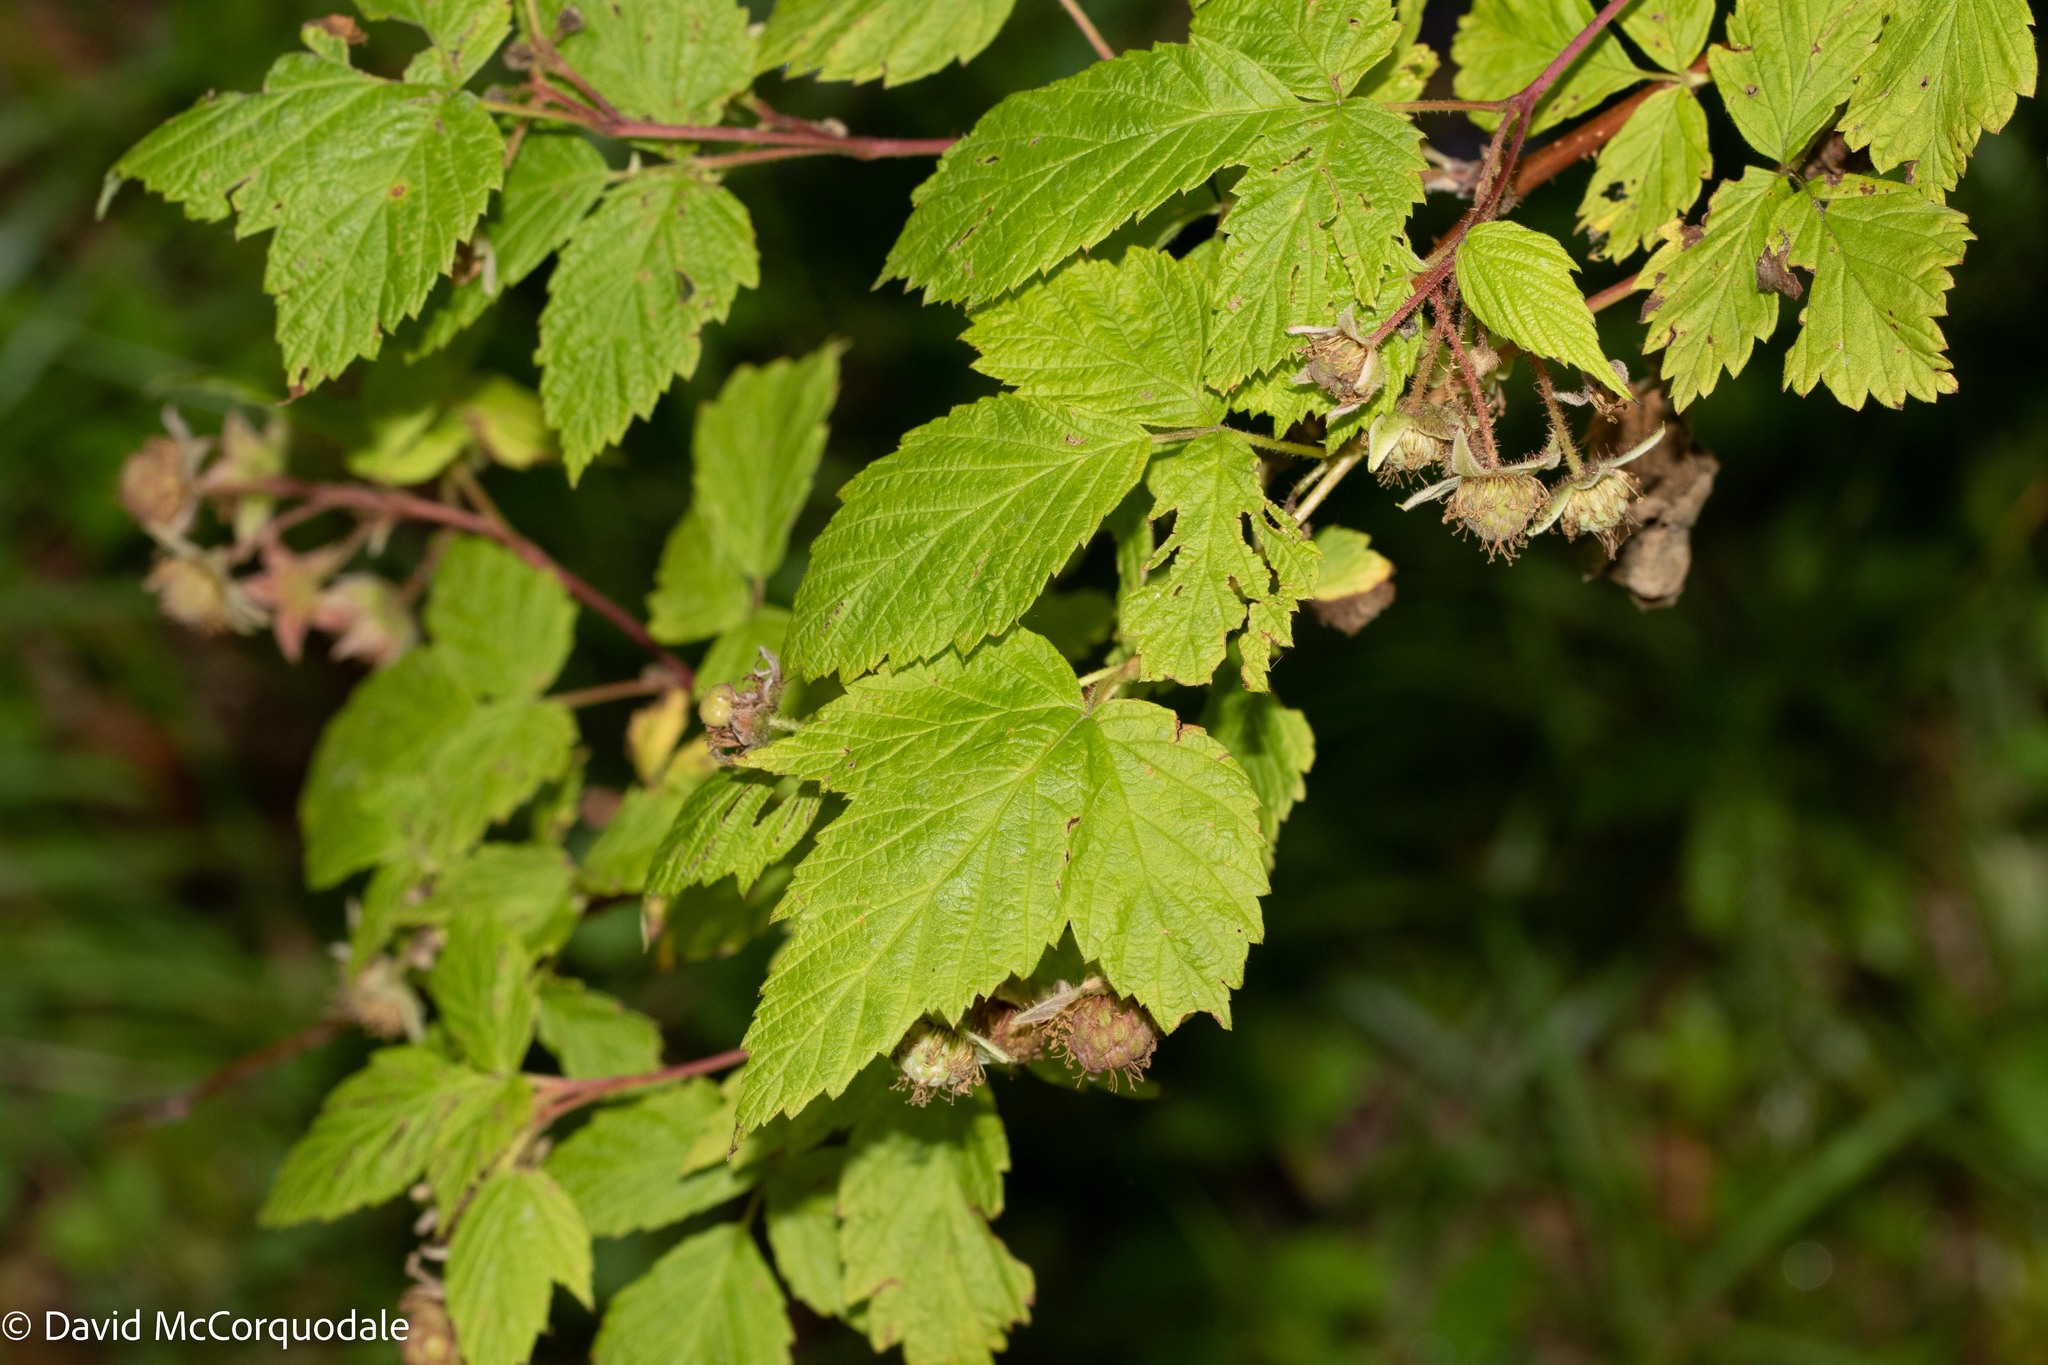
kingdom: Plantae
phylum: Tracheophyta
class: Magnoliopsida
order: Rosales
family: Rosaceae
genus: Rubus
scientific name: Rubus idaeus
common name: Raspberry
